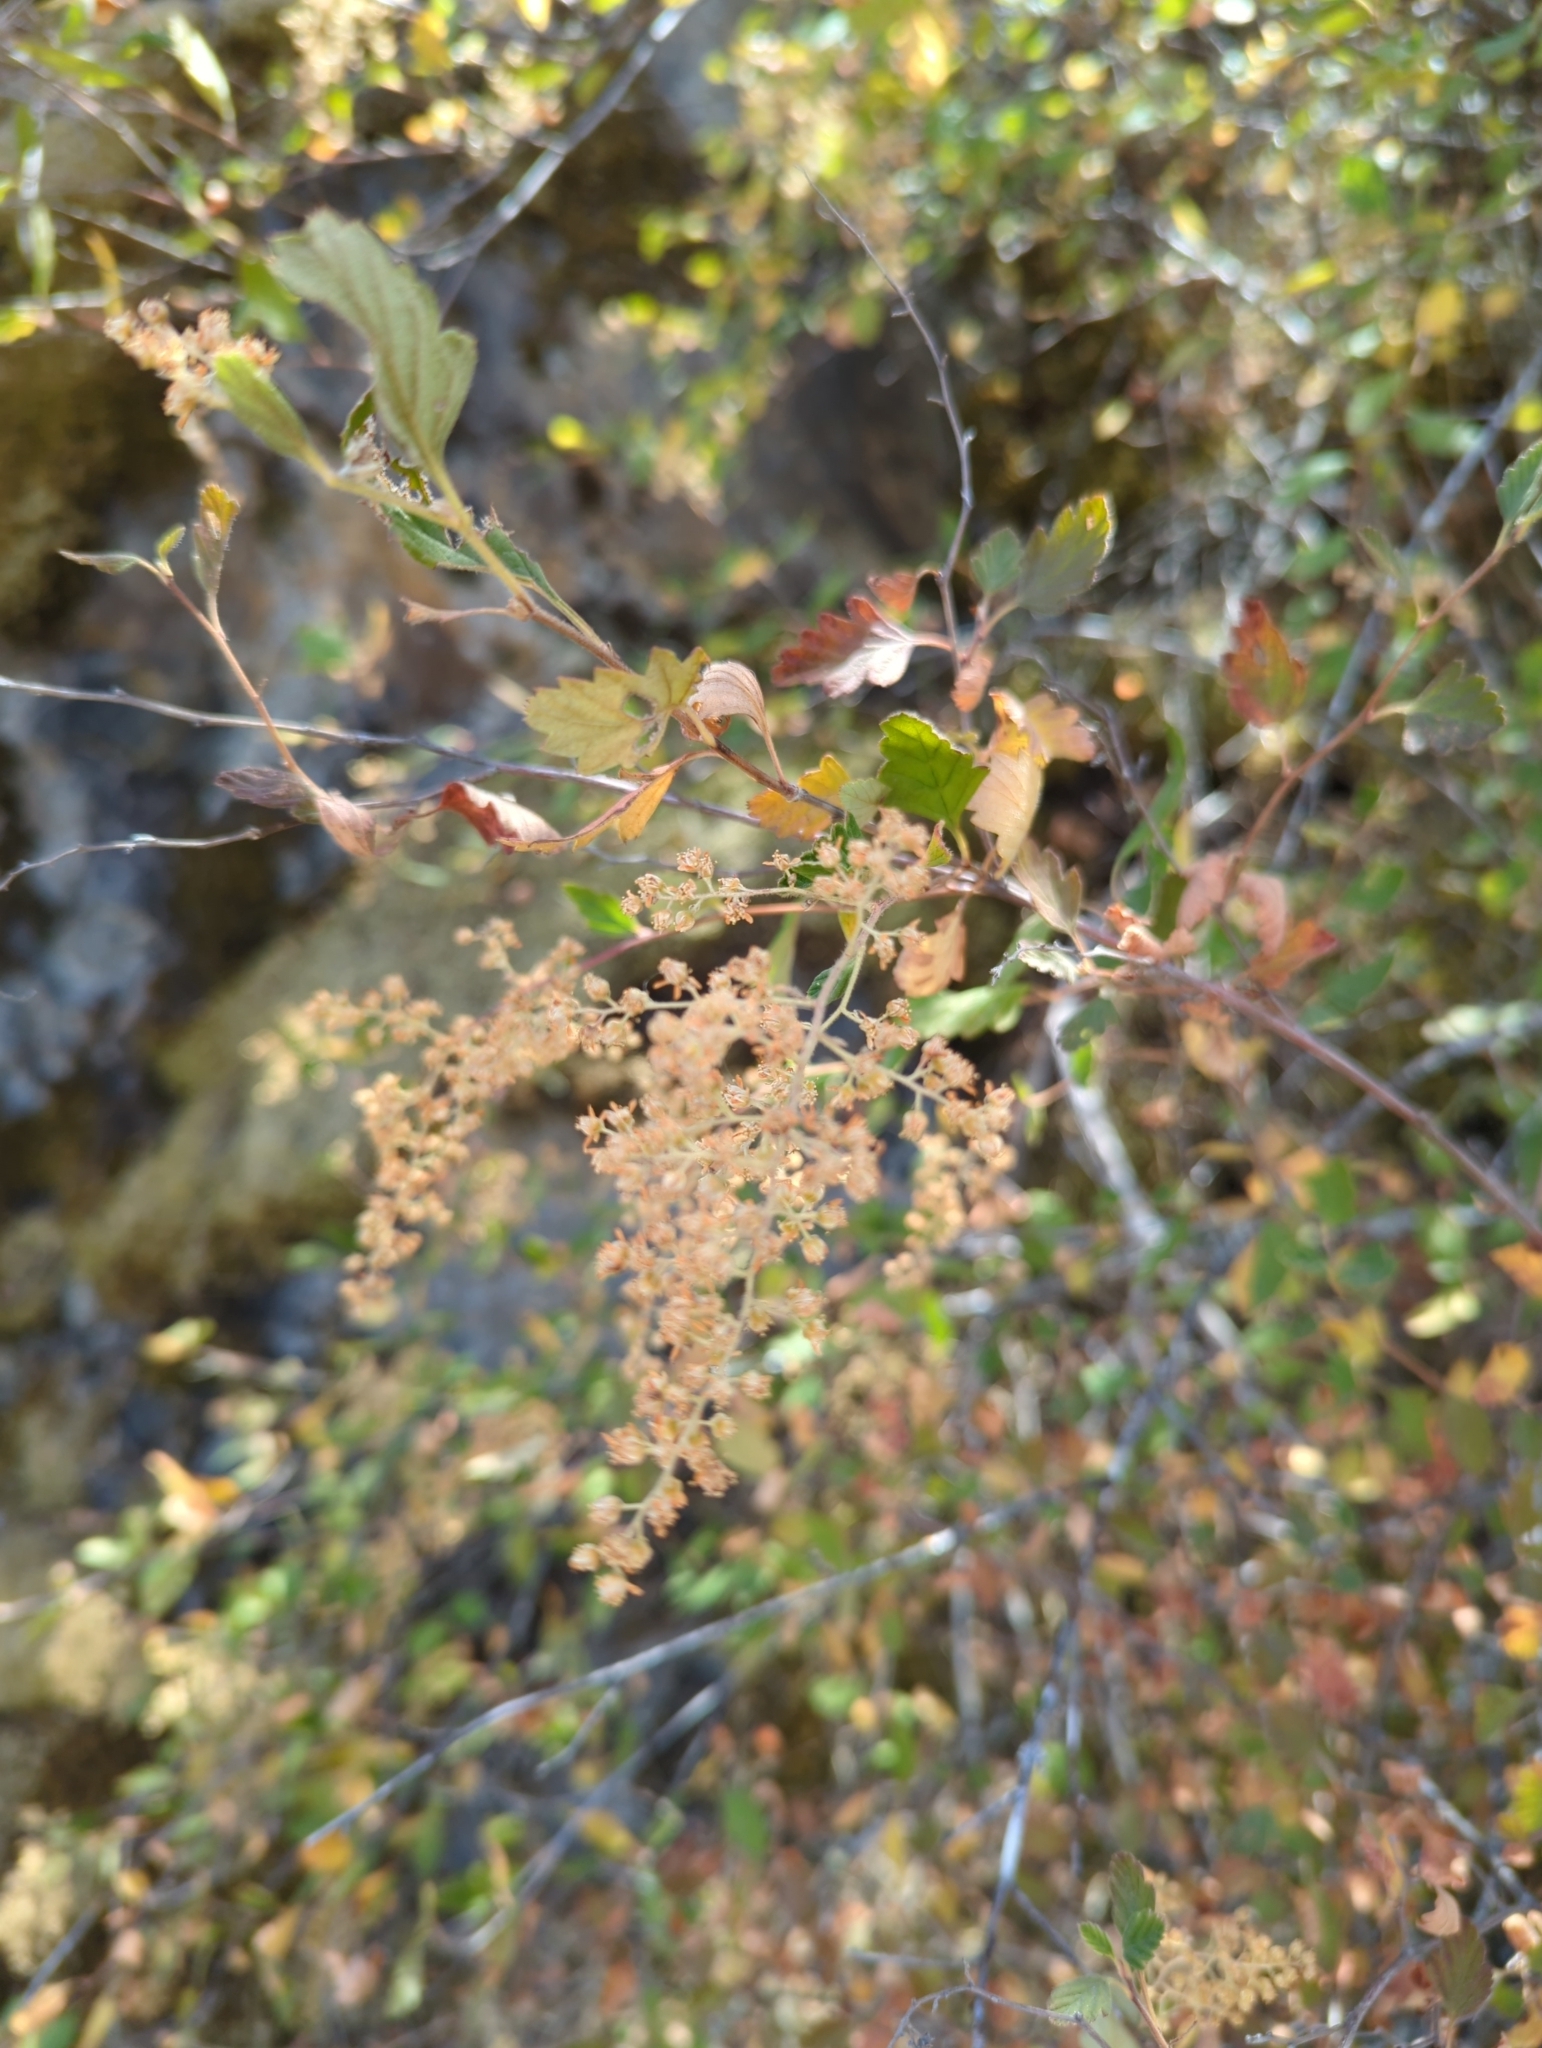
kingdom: Plantae
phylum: Tracheophyta
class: Magnoliopsida
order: Rosales
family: Rosaceae
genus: Holodiscus
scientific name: Holodiscus discolor
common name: Oceanspray
